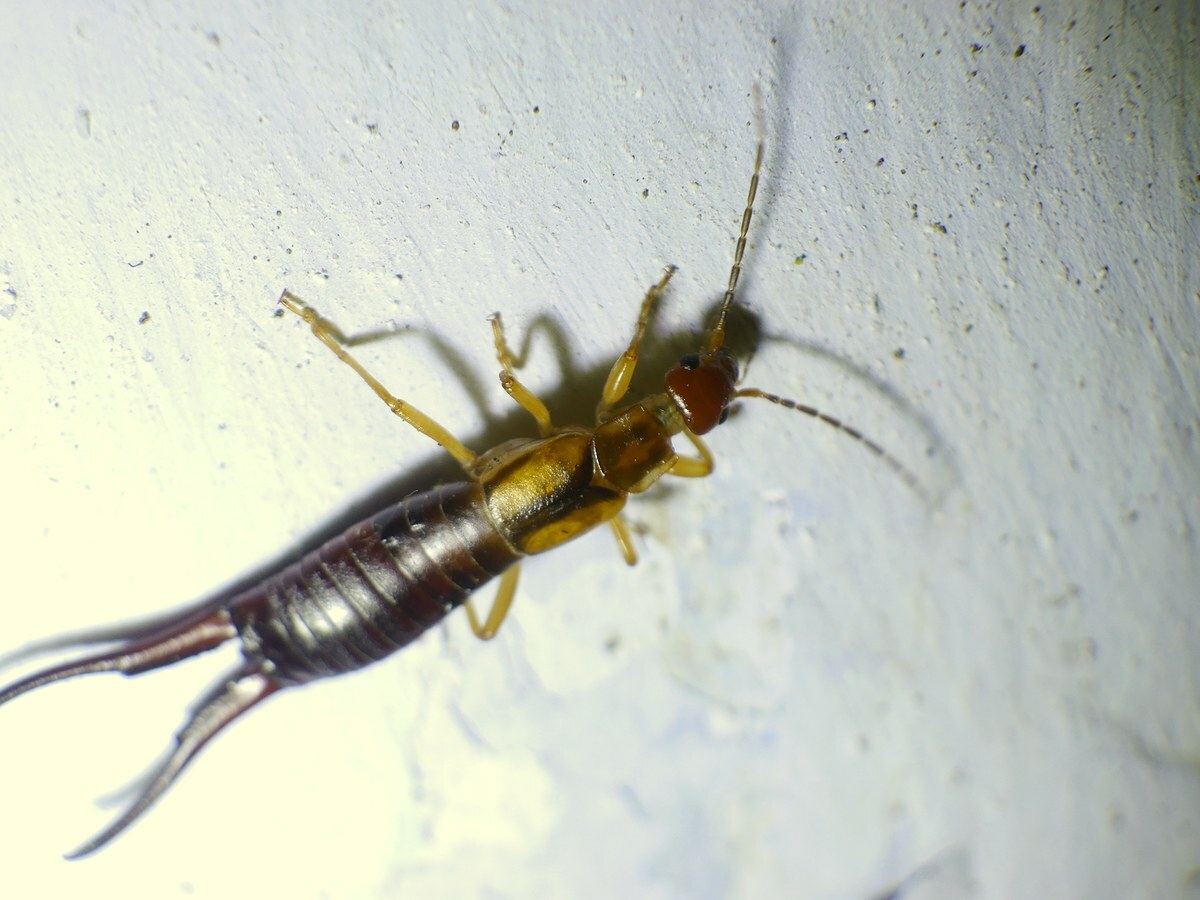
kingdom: Animalia
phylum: Arthropoda
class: Insecta
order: Dermaptera
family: Forficulidae
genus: Forficula
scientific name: Forficula tomis
